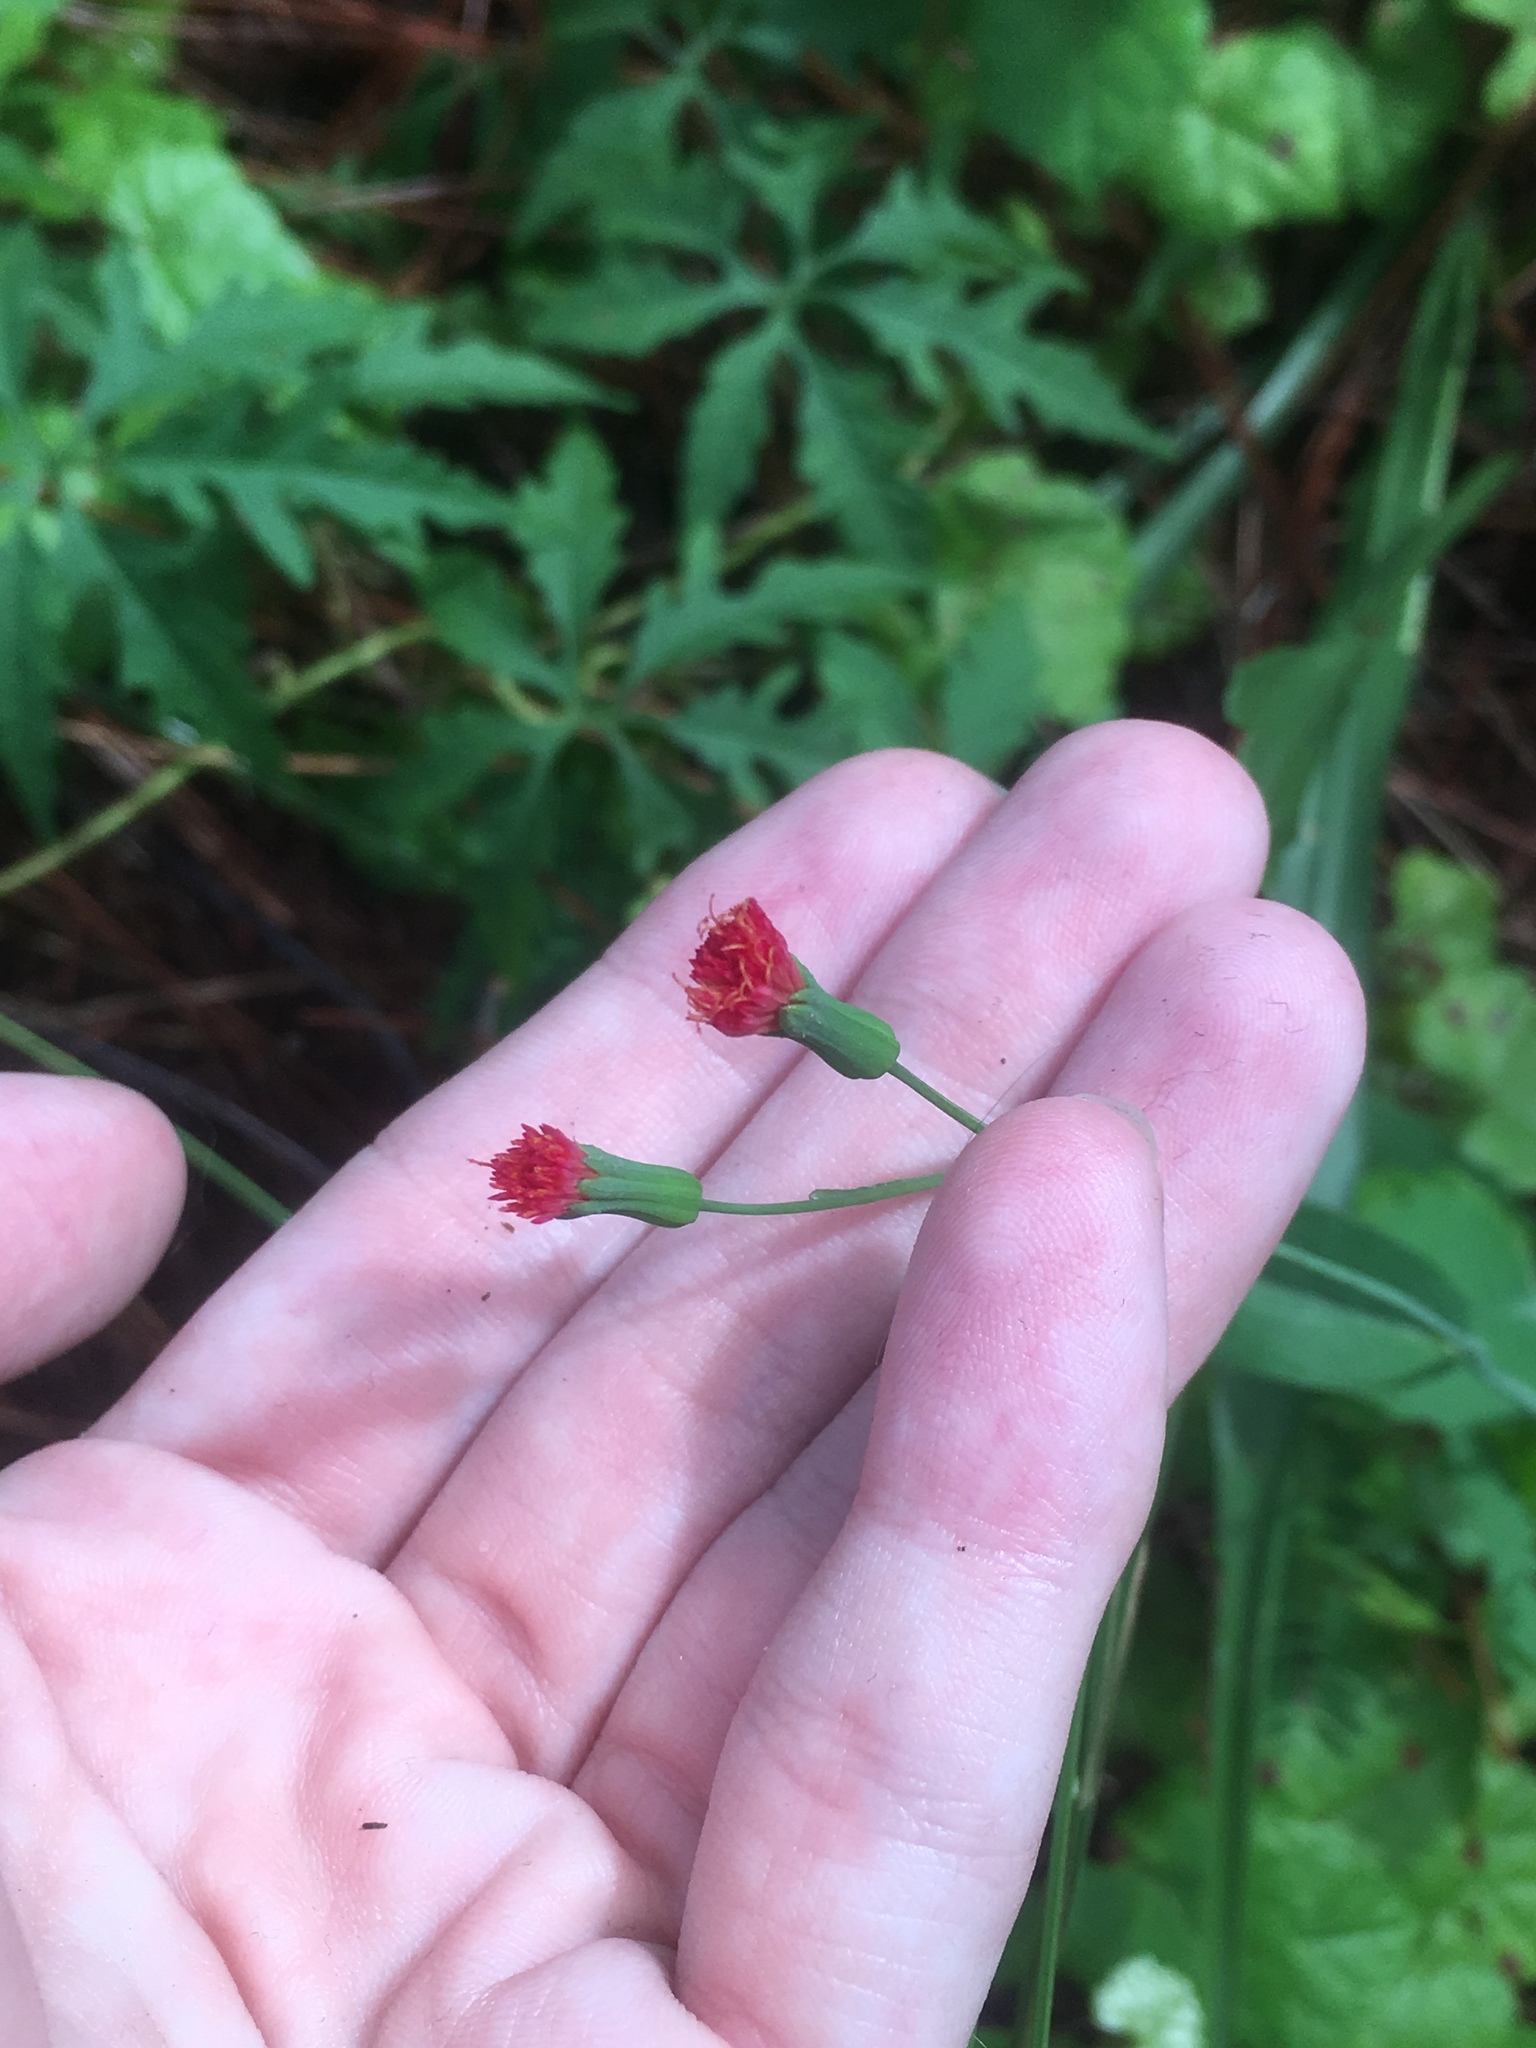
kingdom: Plantae
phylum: Tracheophyta
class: Magnoliopsida
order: Asterales
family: Asteraceae
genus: Emilia
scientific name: Emilia fosbergii
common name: Florida tasselflower
